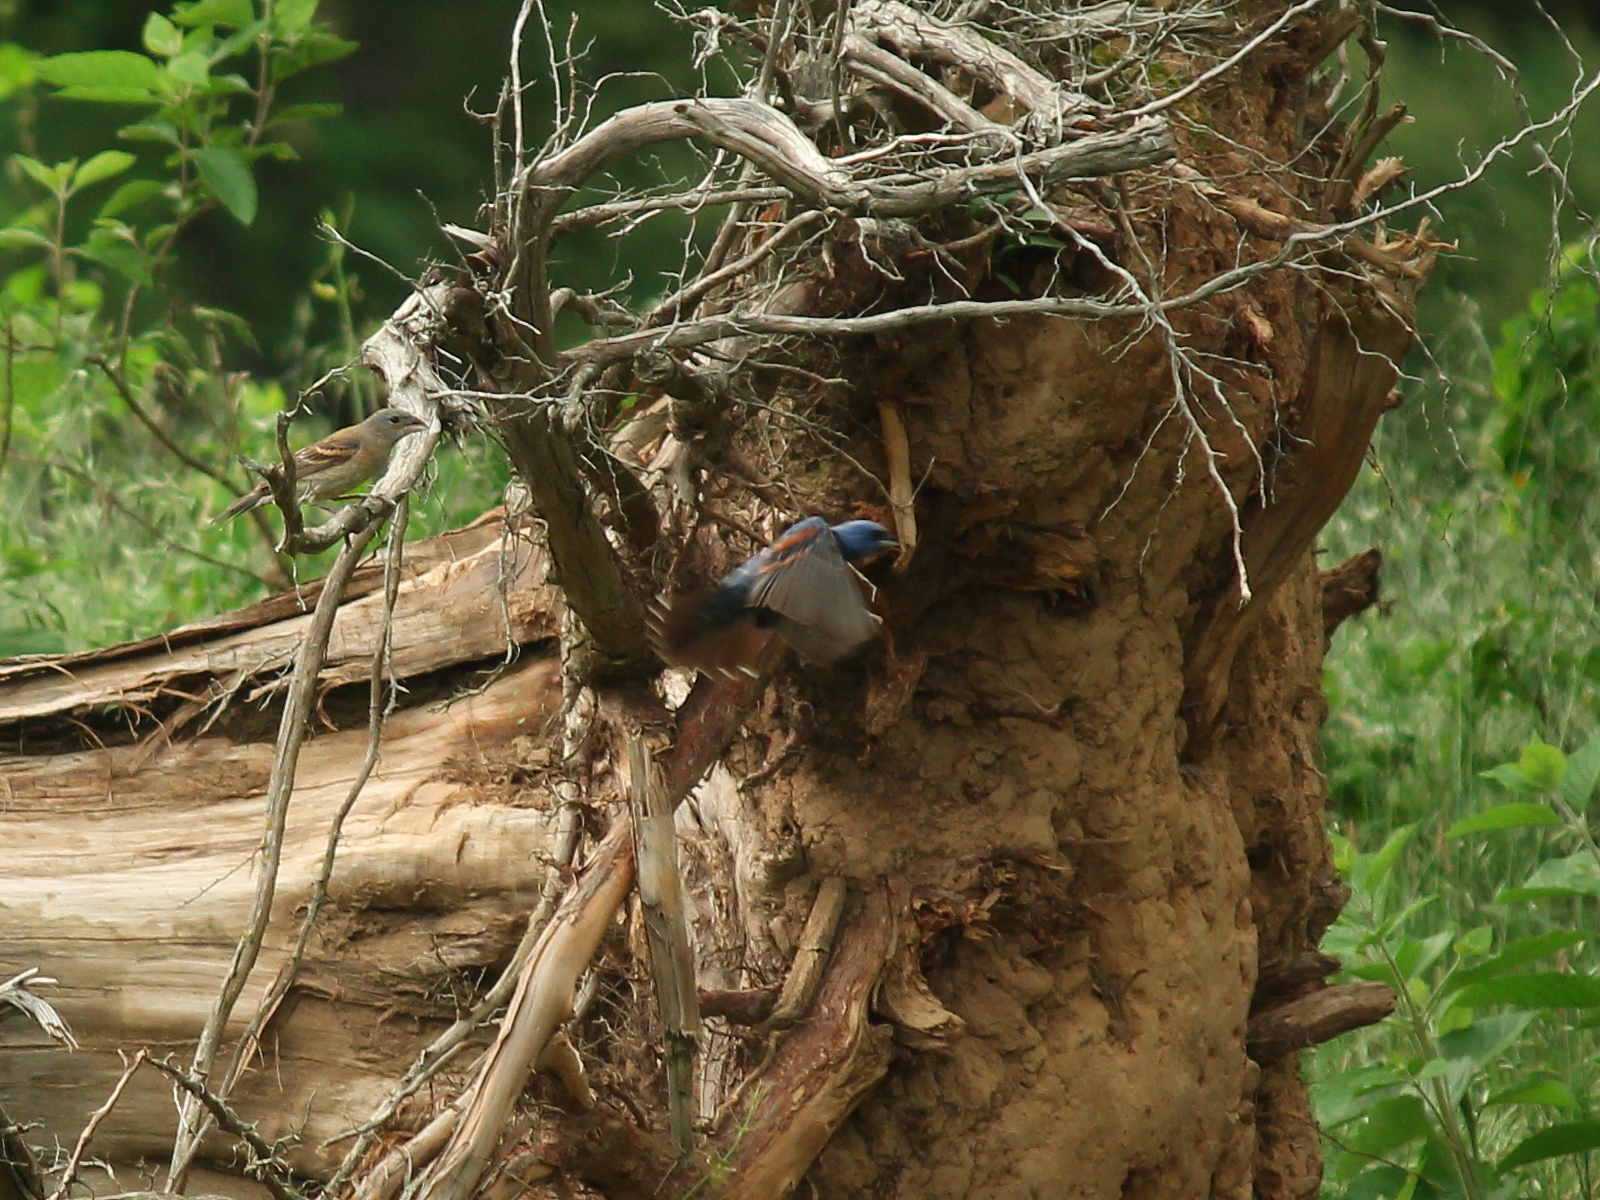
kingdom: Animalia
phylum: Chordata
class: Aves
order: Passeriformes
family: Cardinalidae
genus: Passerina
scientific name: Passerina caerulea
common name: Blue grosbeak
